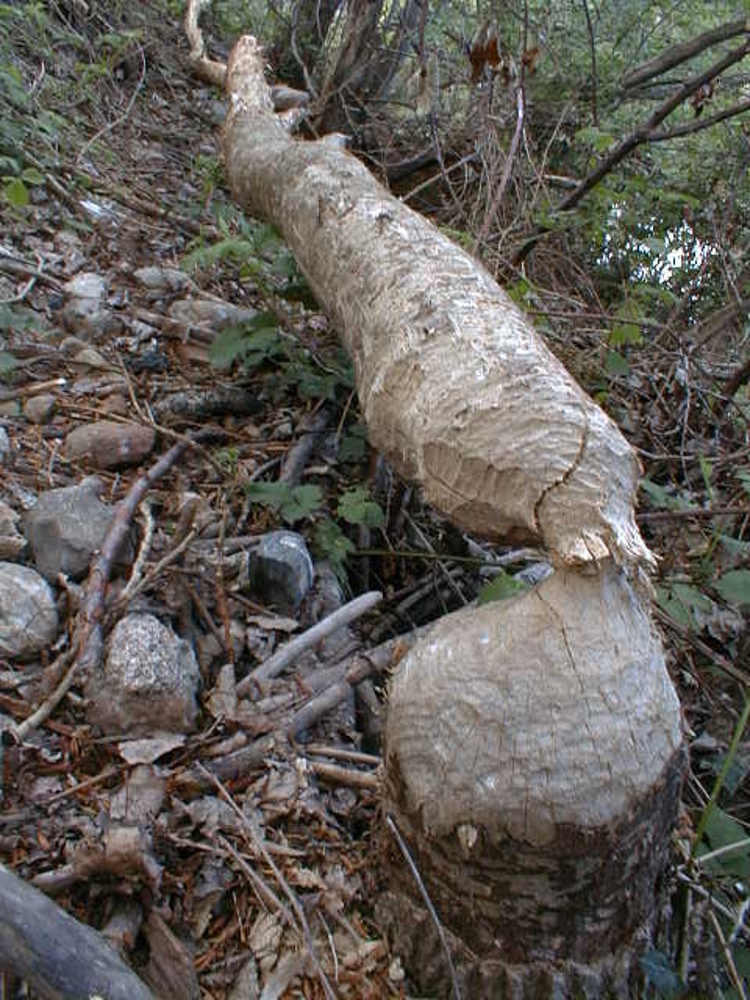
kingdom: Animalia
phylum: Chordata
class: Mammalia
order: Rodentia
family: Castoridae
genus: Castor
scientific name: Castor fiber
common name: Eurasian beaver
